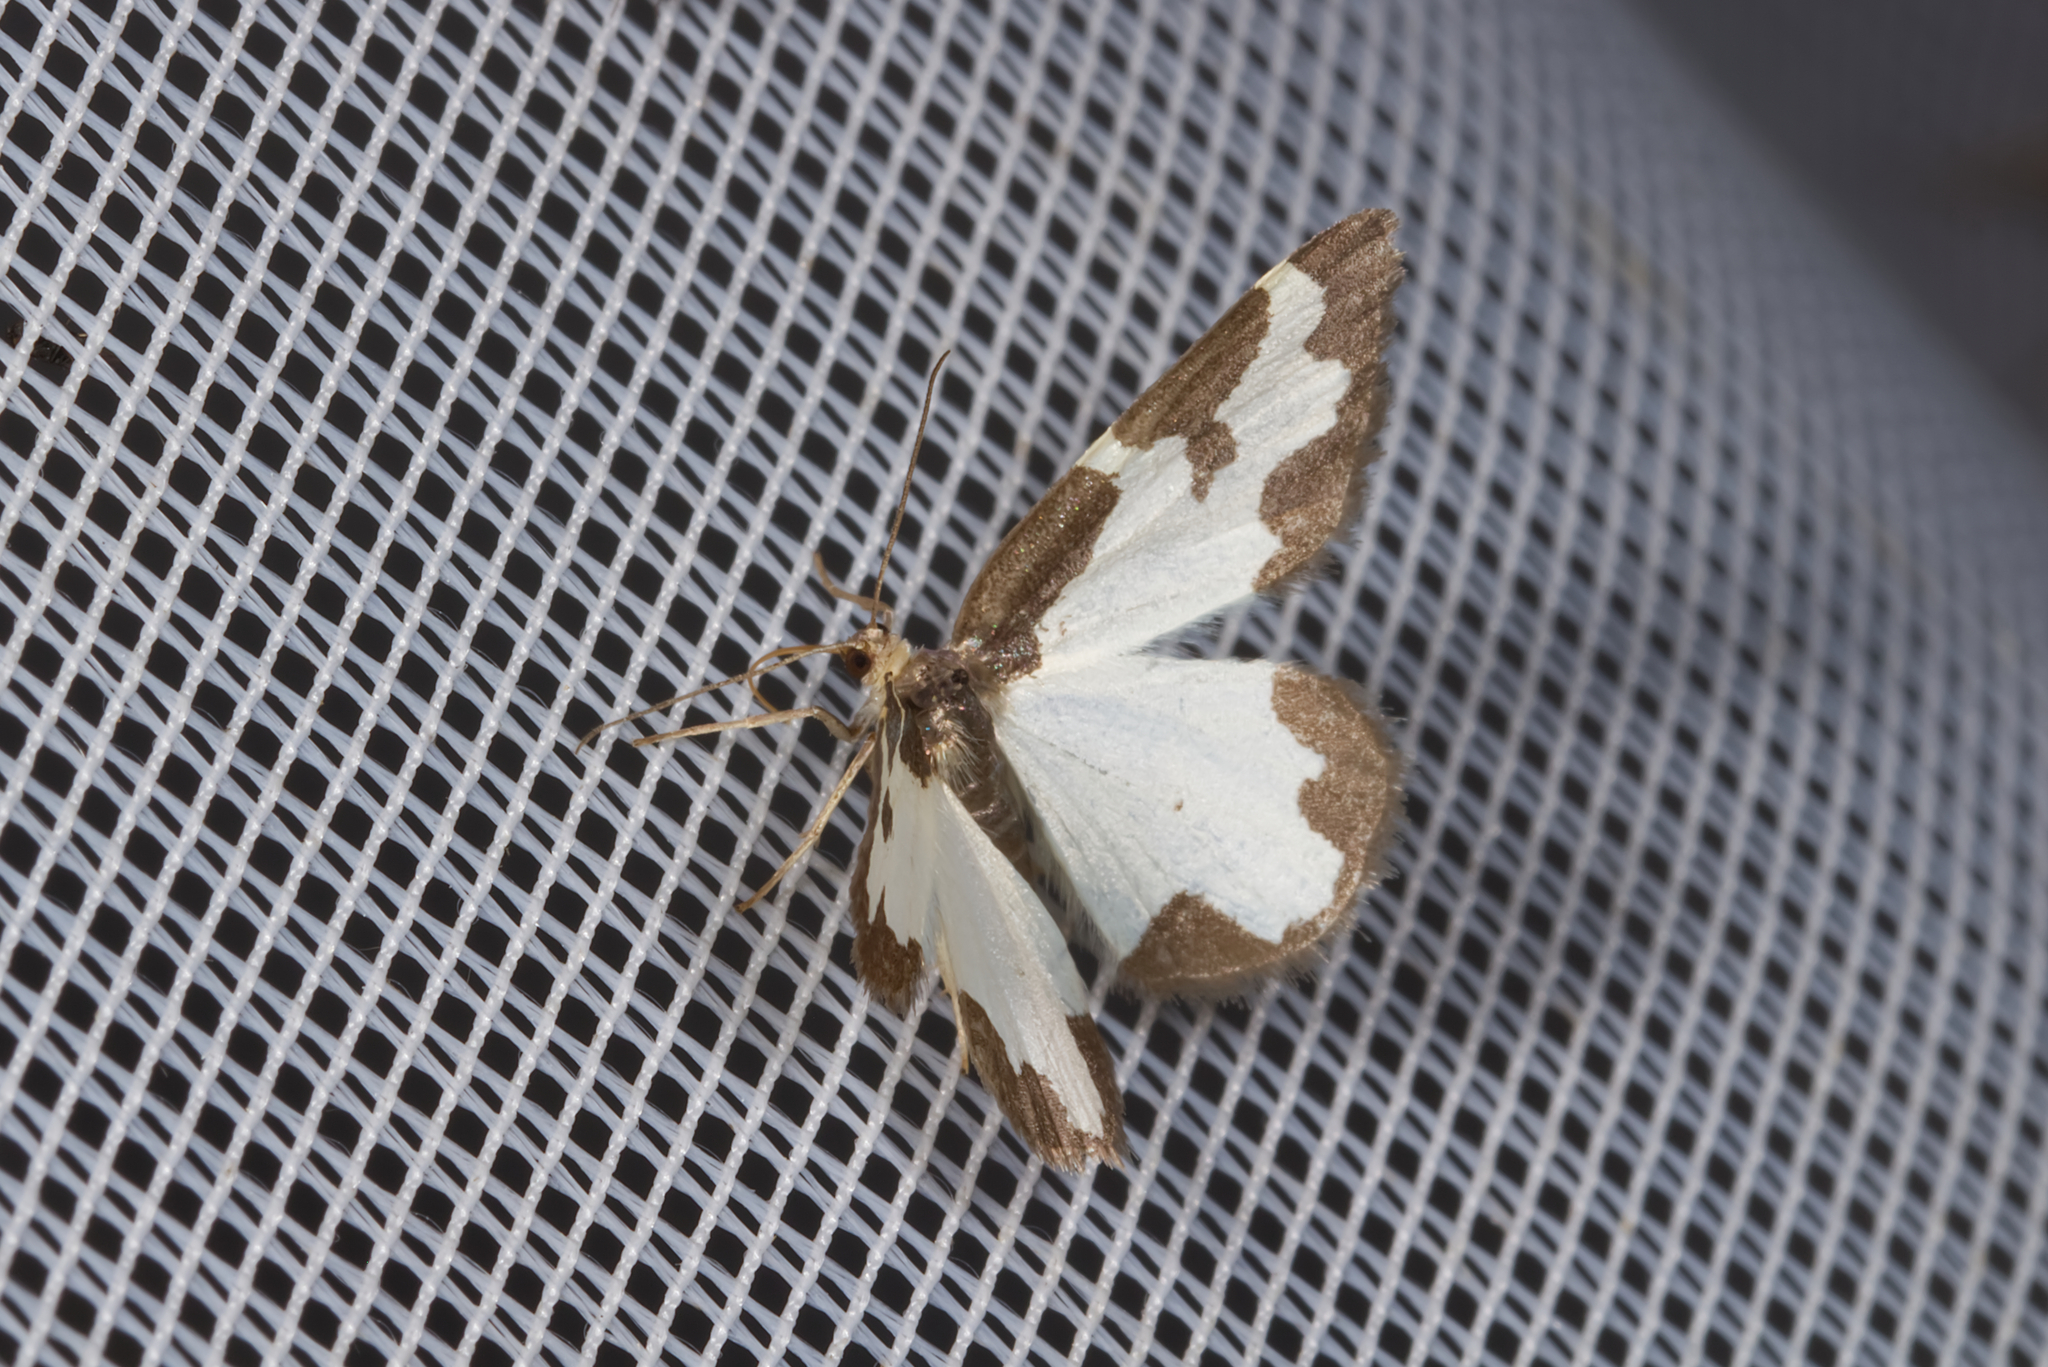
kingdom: Animalia
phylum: Arthropoda
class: Insecta
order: Lepidoptera
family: Geometridae
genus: Lomaspilis
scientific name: Lomaspilis marginata
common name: Clouded border
